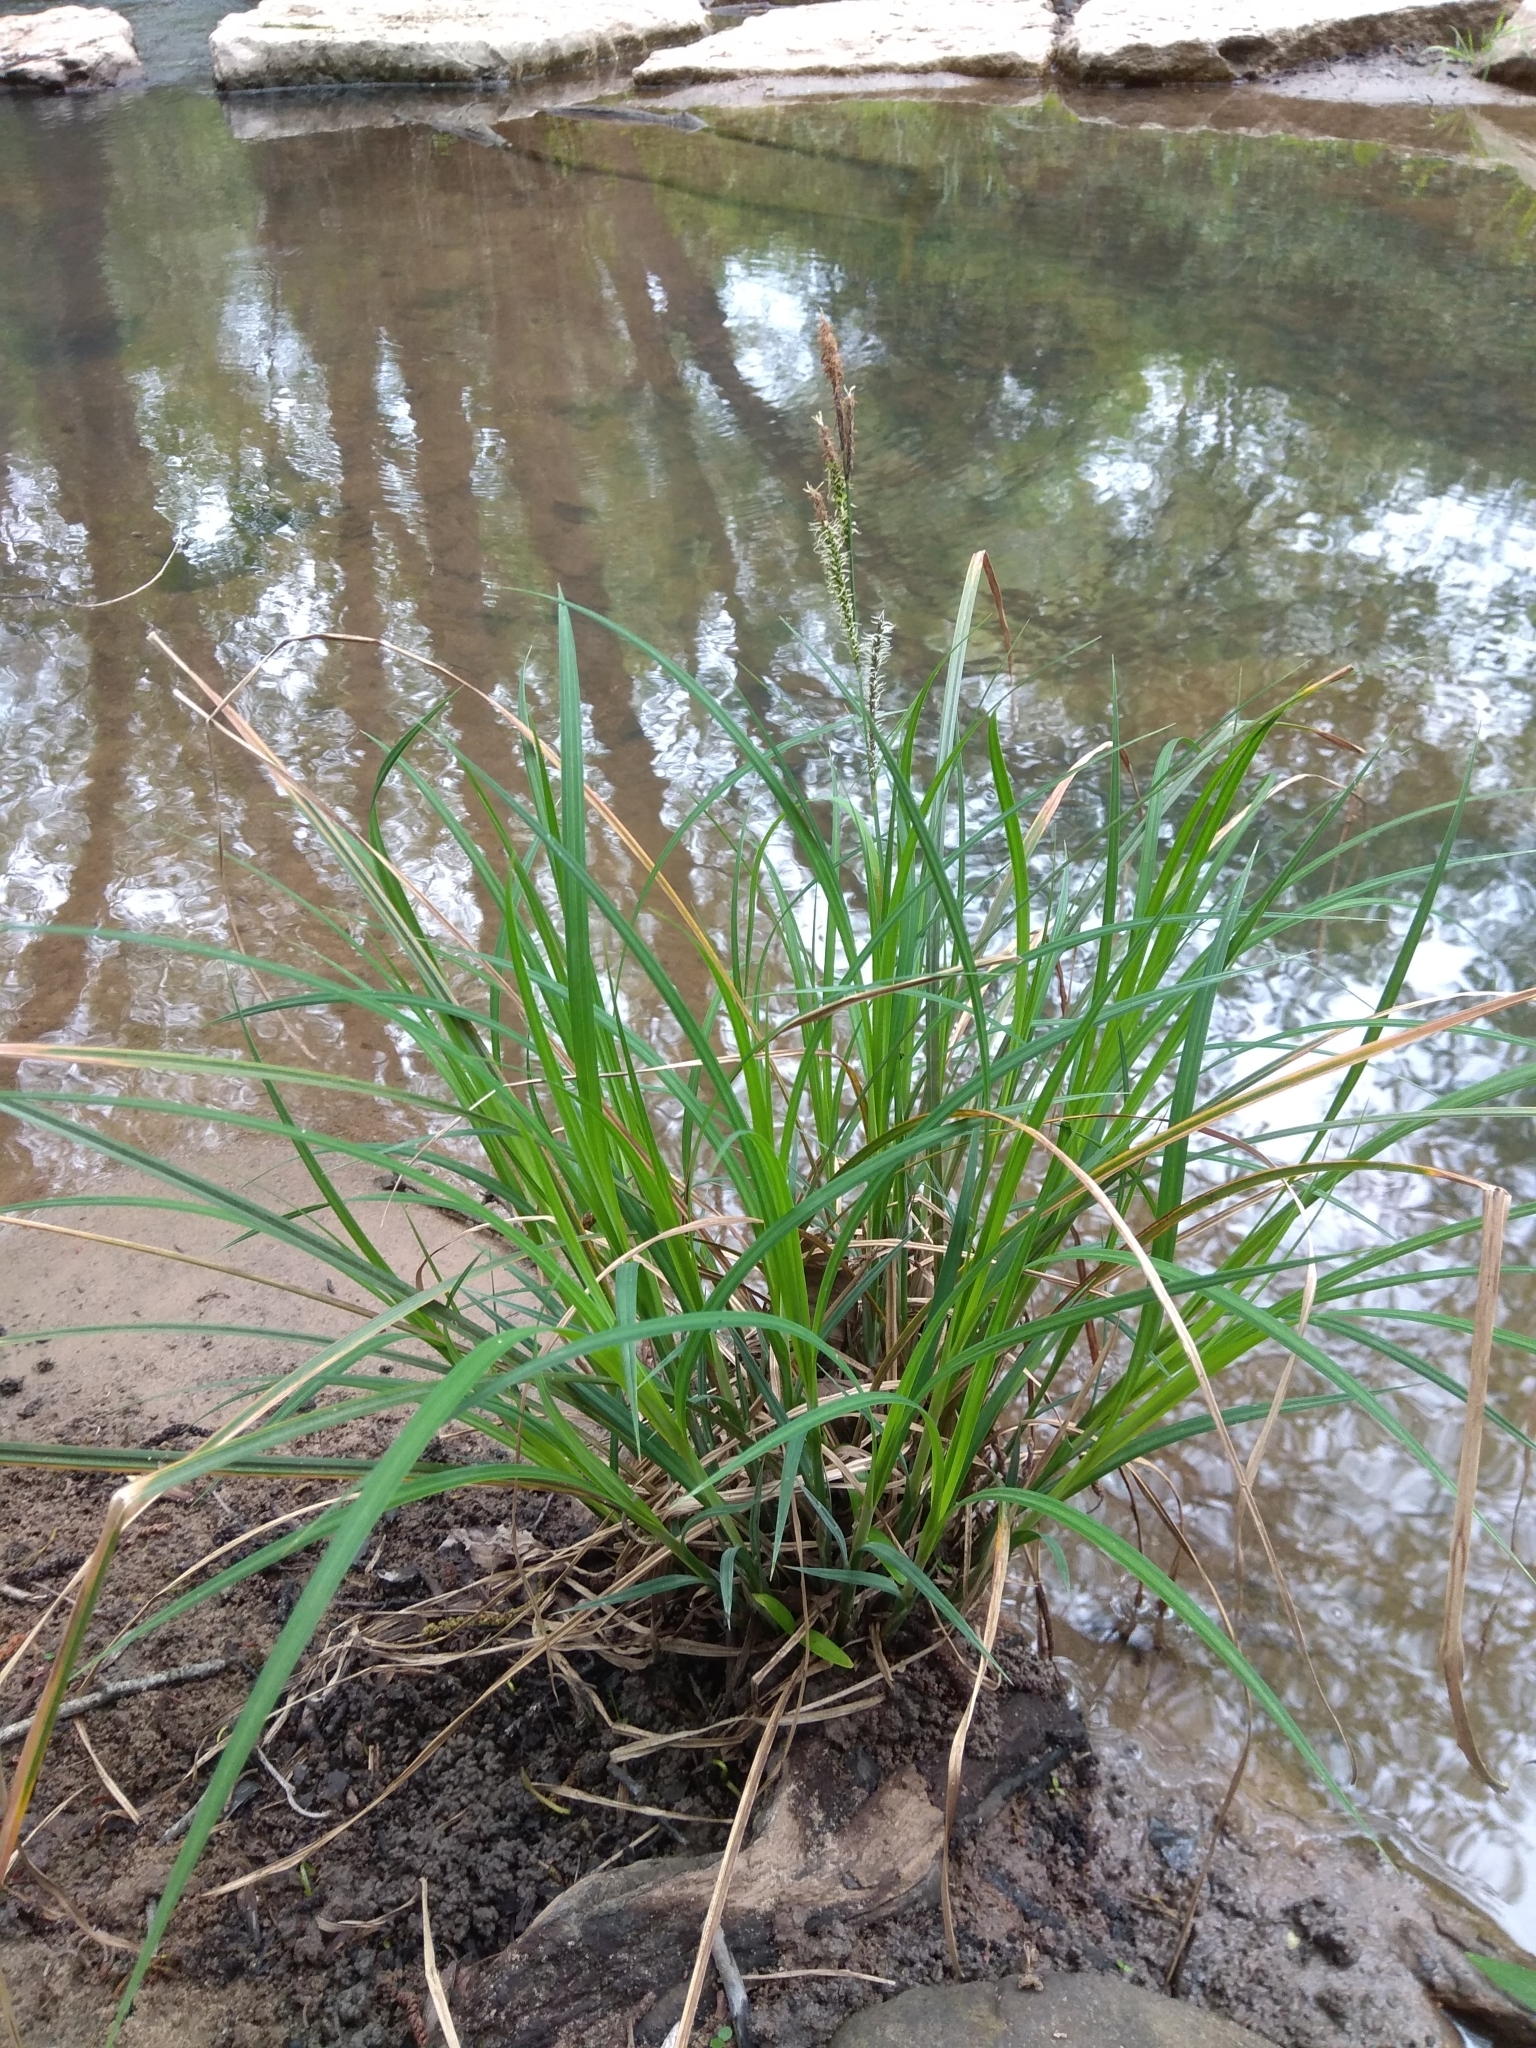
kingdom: Plantae
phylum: Tracheophyta
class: Liliopsida
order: Poales
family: Cyperaceae
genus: Carex
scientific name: Carex reuteriana
